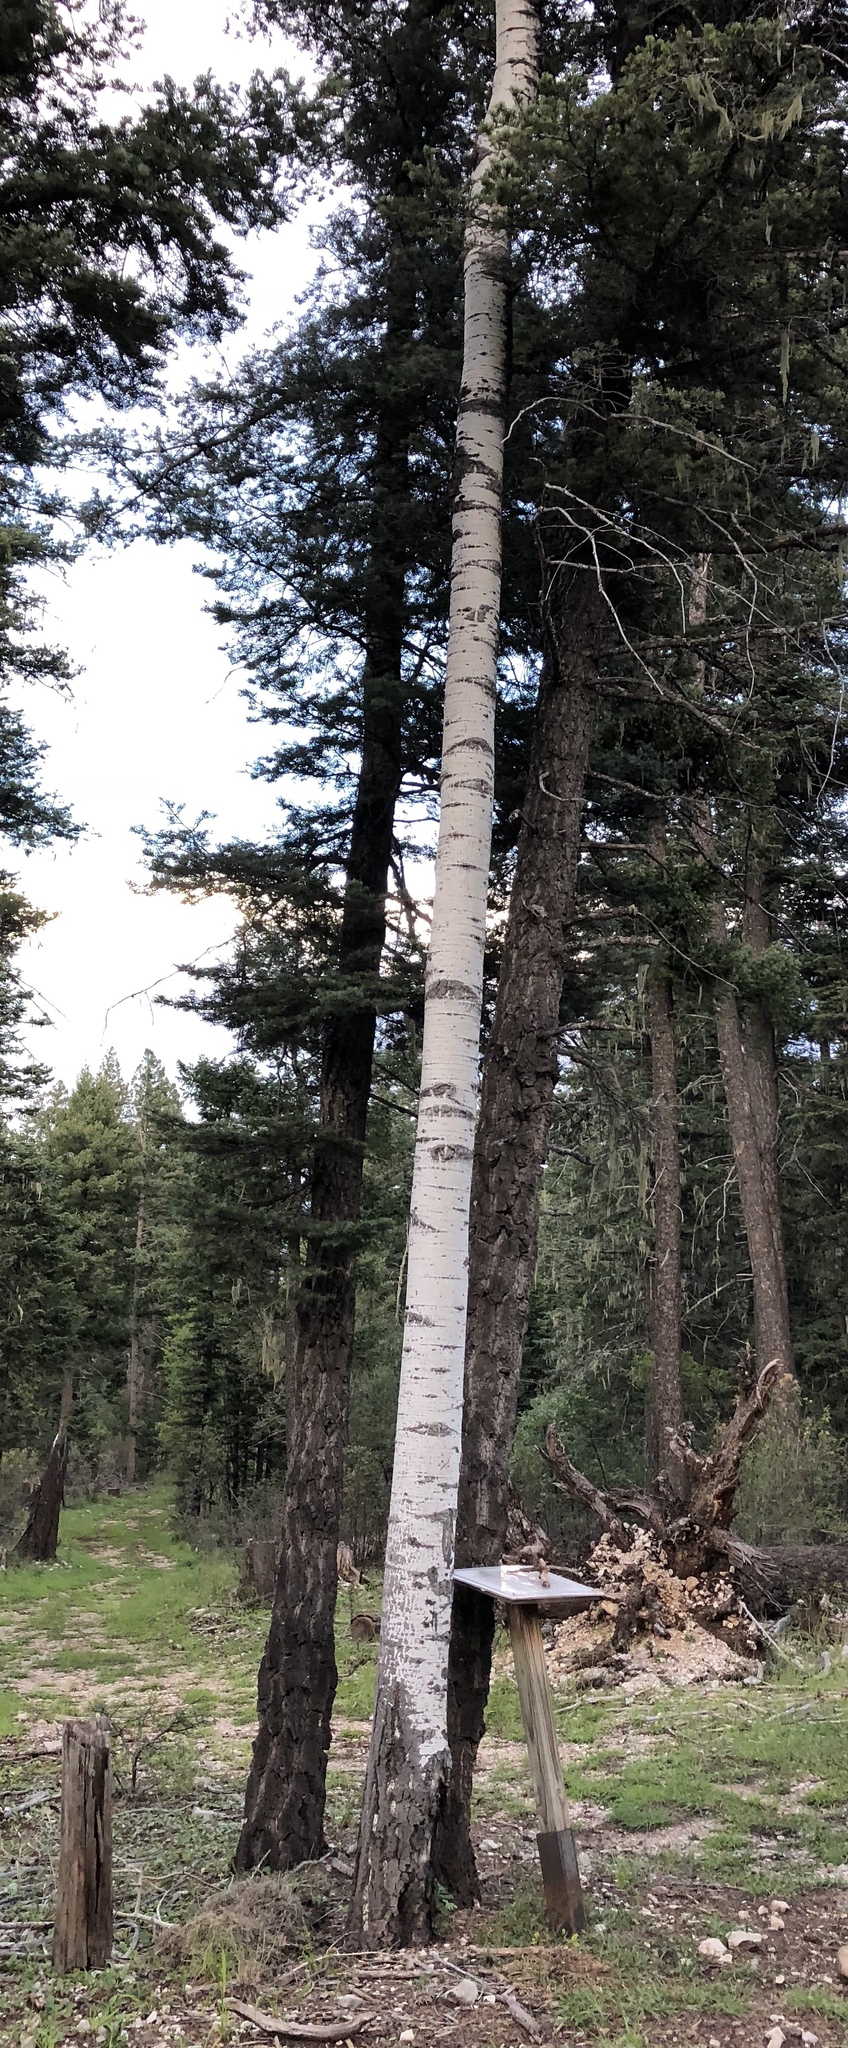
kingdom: Plantae
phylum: Tracheophyta
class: Magnoliopsida
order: Malpighiales
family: Salicaceae
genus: Populus
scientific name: Populus tremuloides
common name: Quaking aspen
